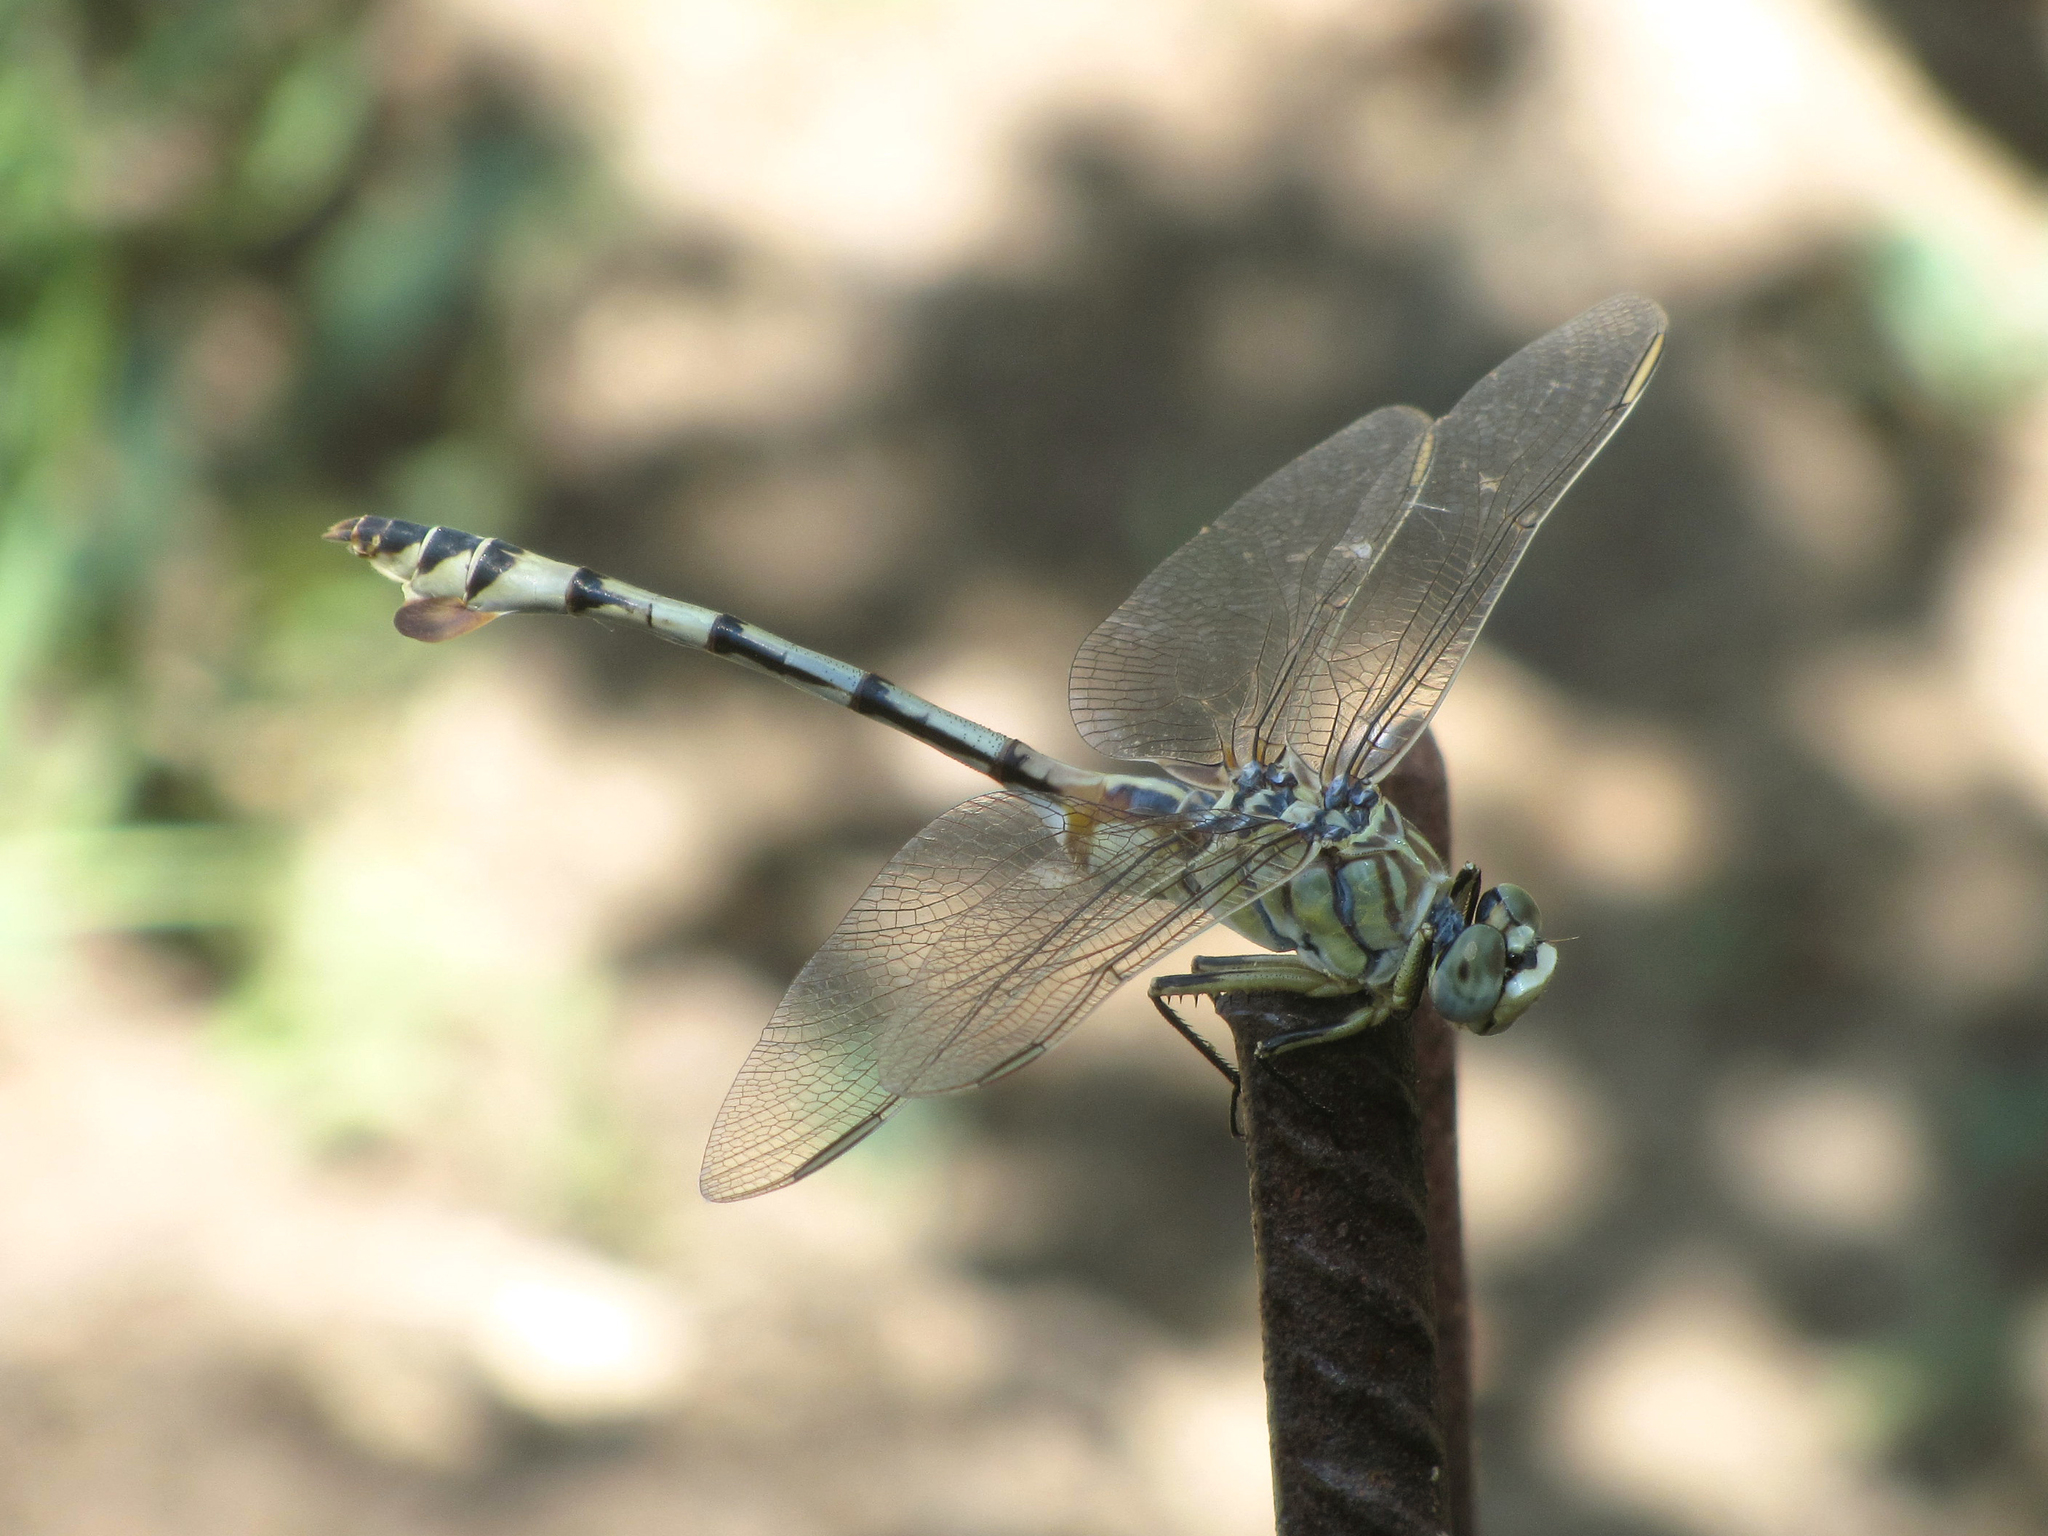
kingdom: Animalia
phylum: Arthropoda
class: Insecta
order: Odonata
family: Gomphidae
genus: Lindenia
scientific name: Lindenia tetraphylla
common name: Bladetail
